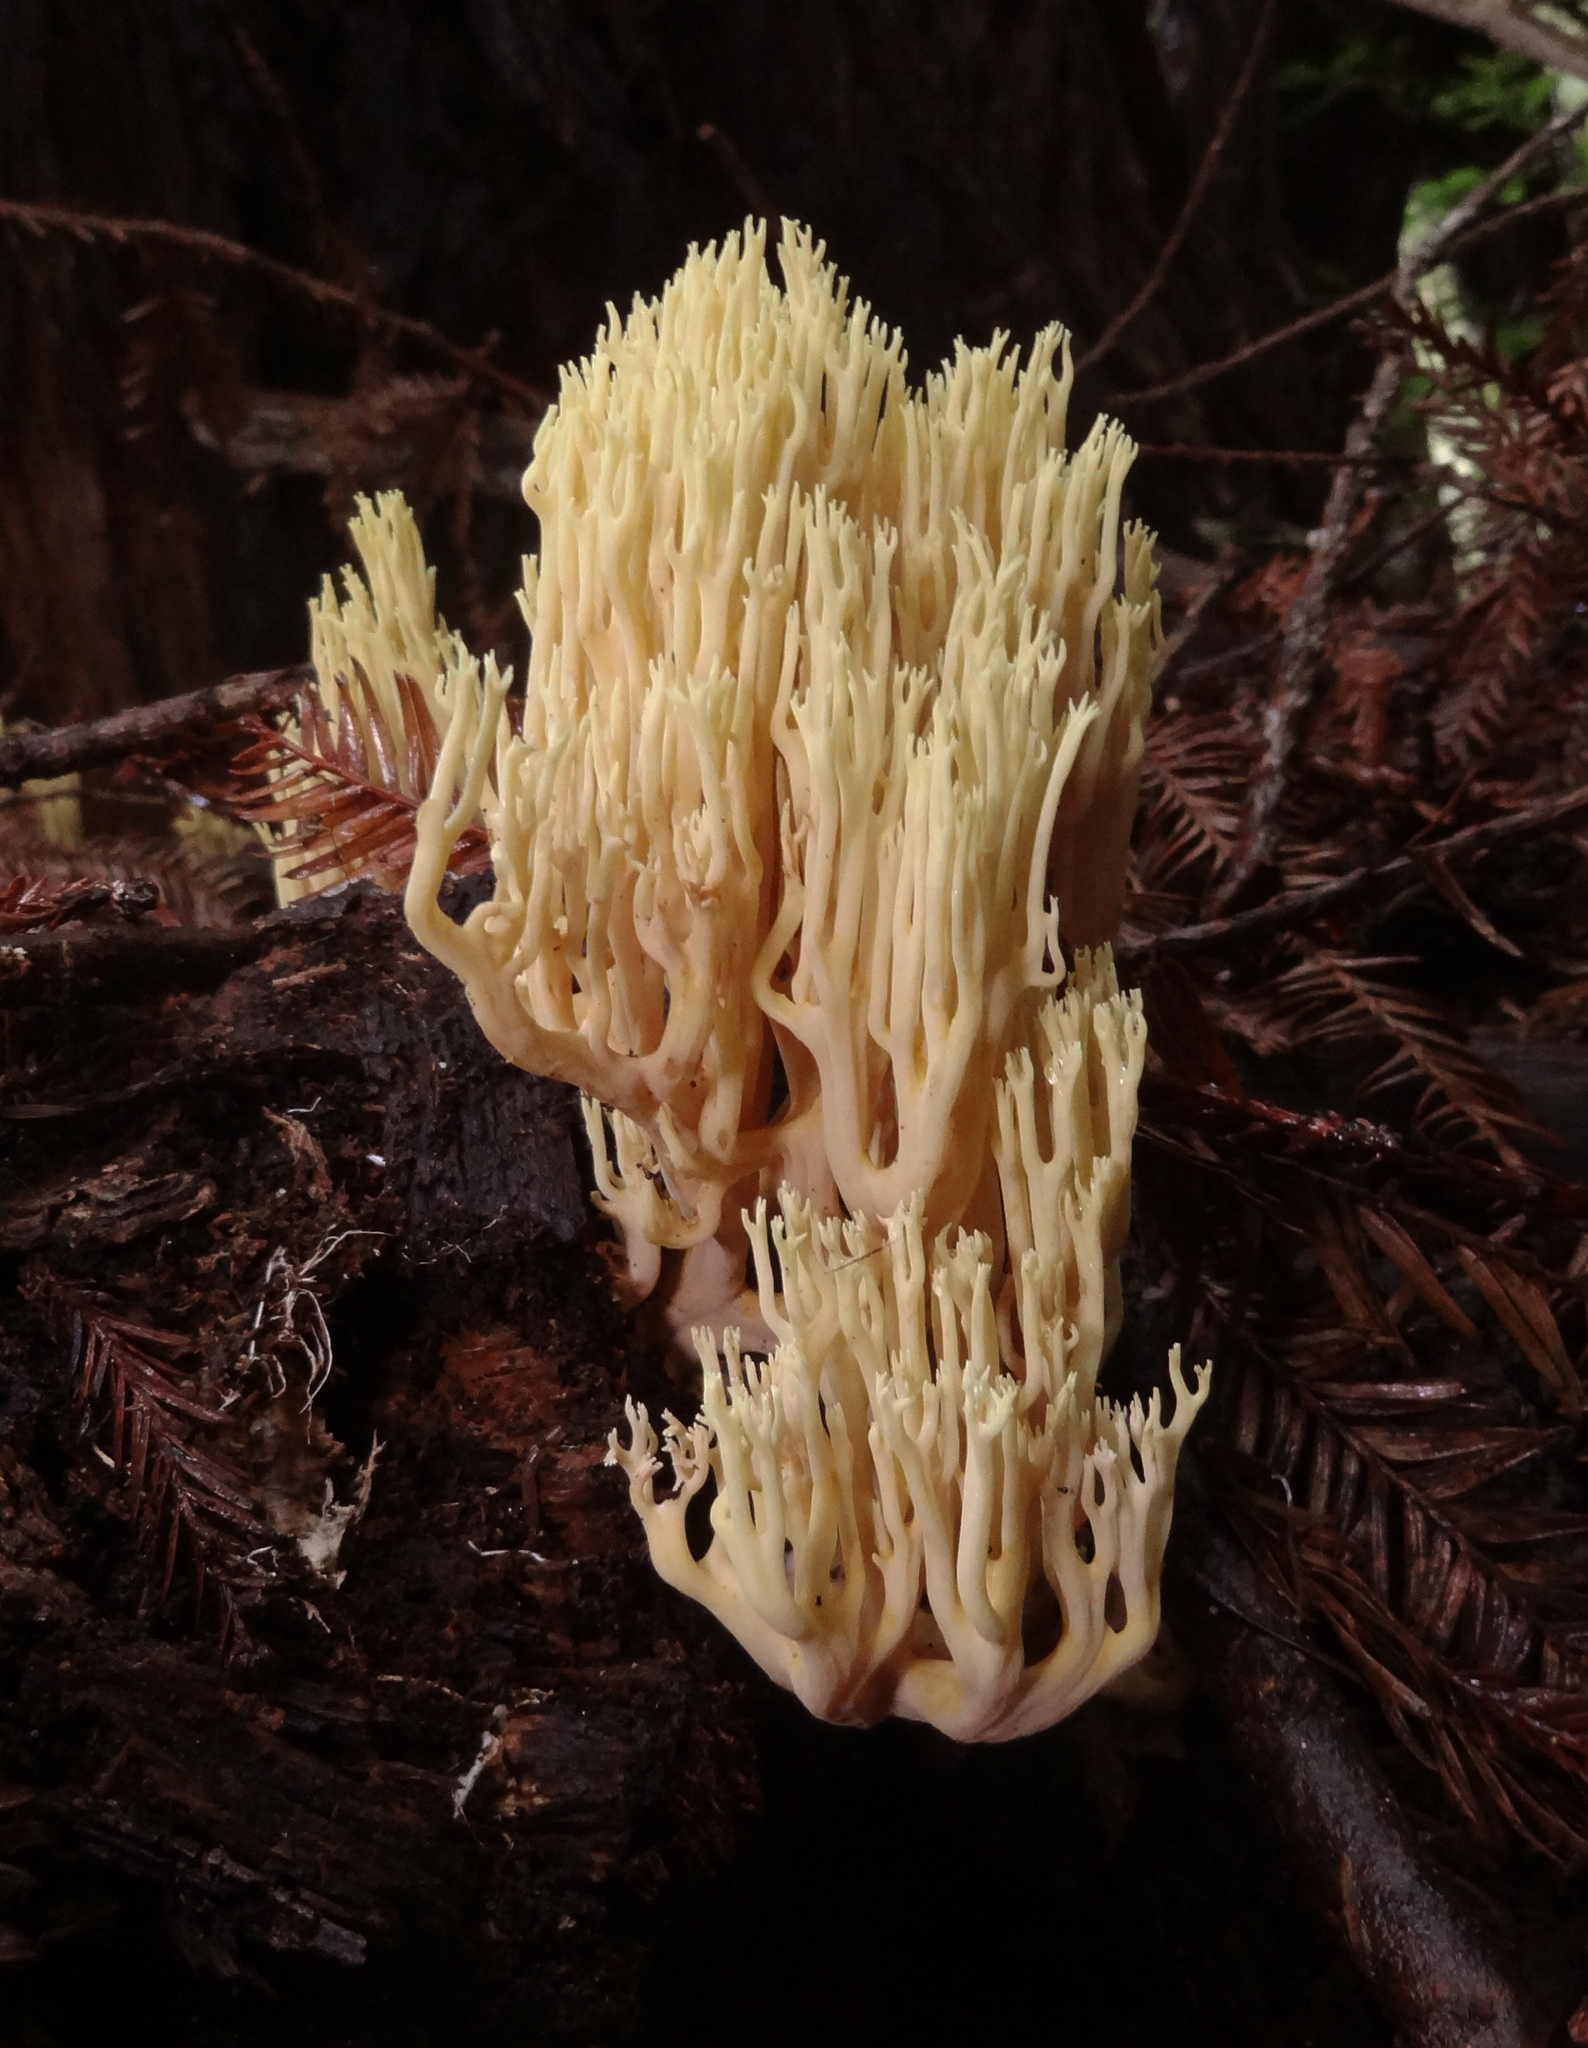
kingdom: Fungi
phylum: Basidiomycota
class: Agaricomycetes
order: Gomphales
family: Gomphaceae
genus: Ramaria
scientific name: Ramaria stricta
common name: Upright coral
